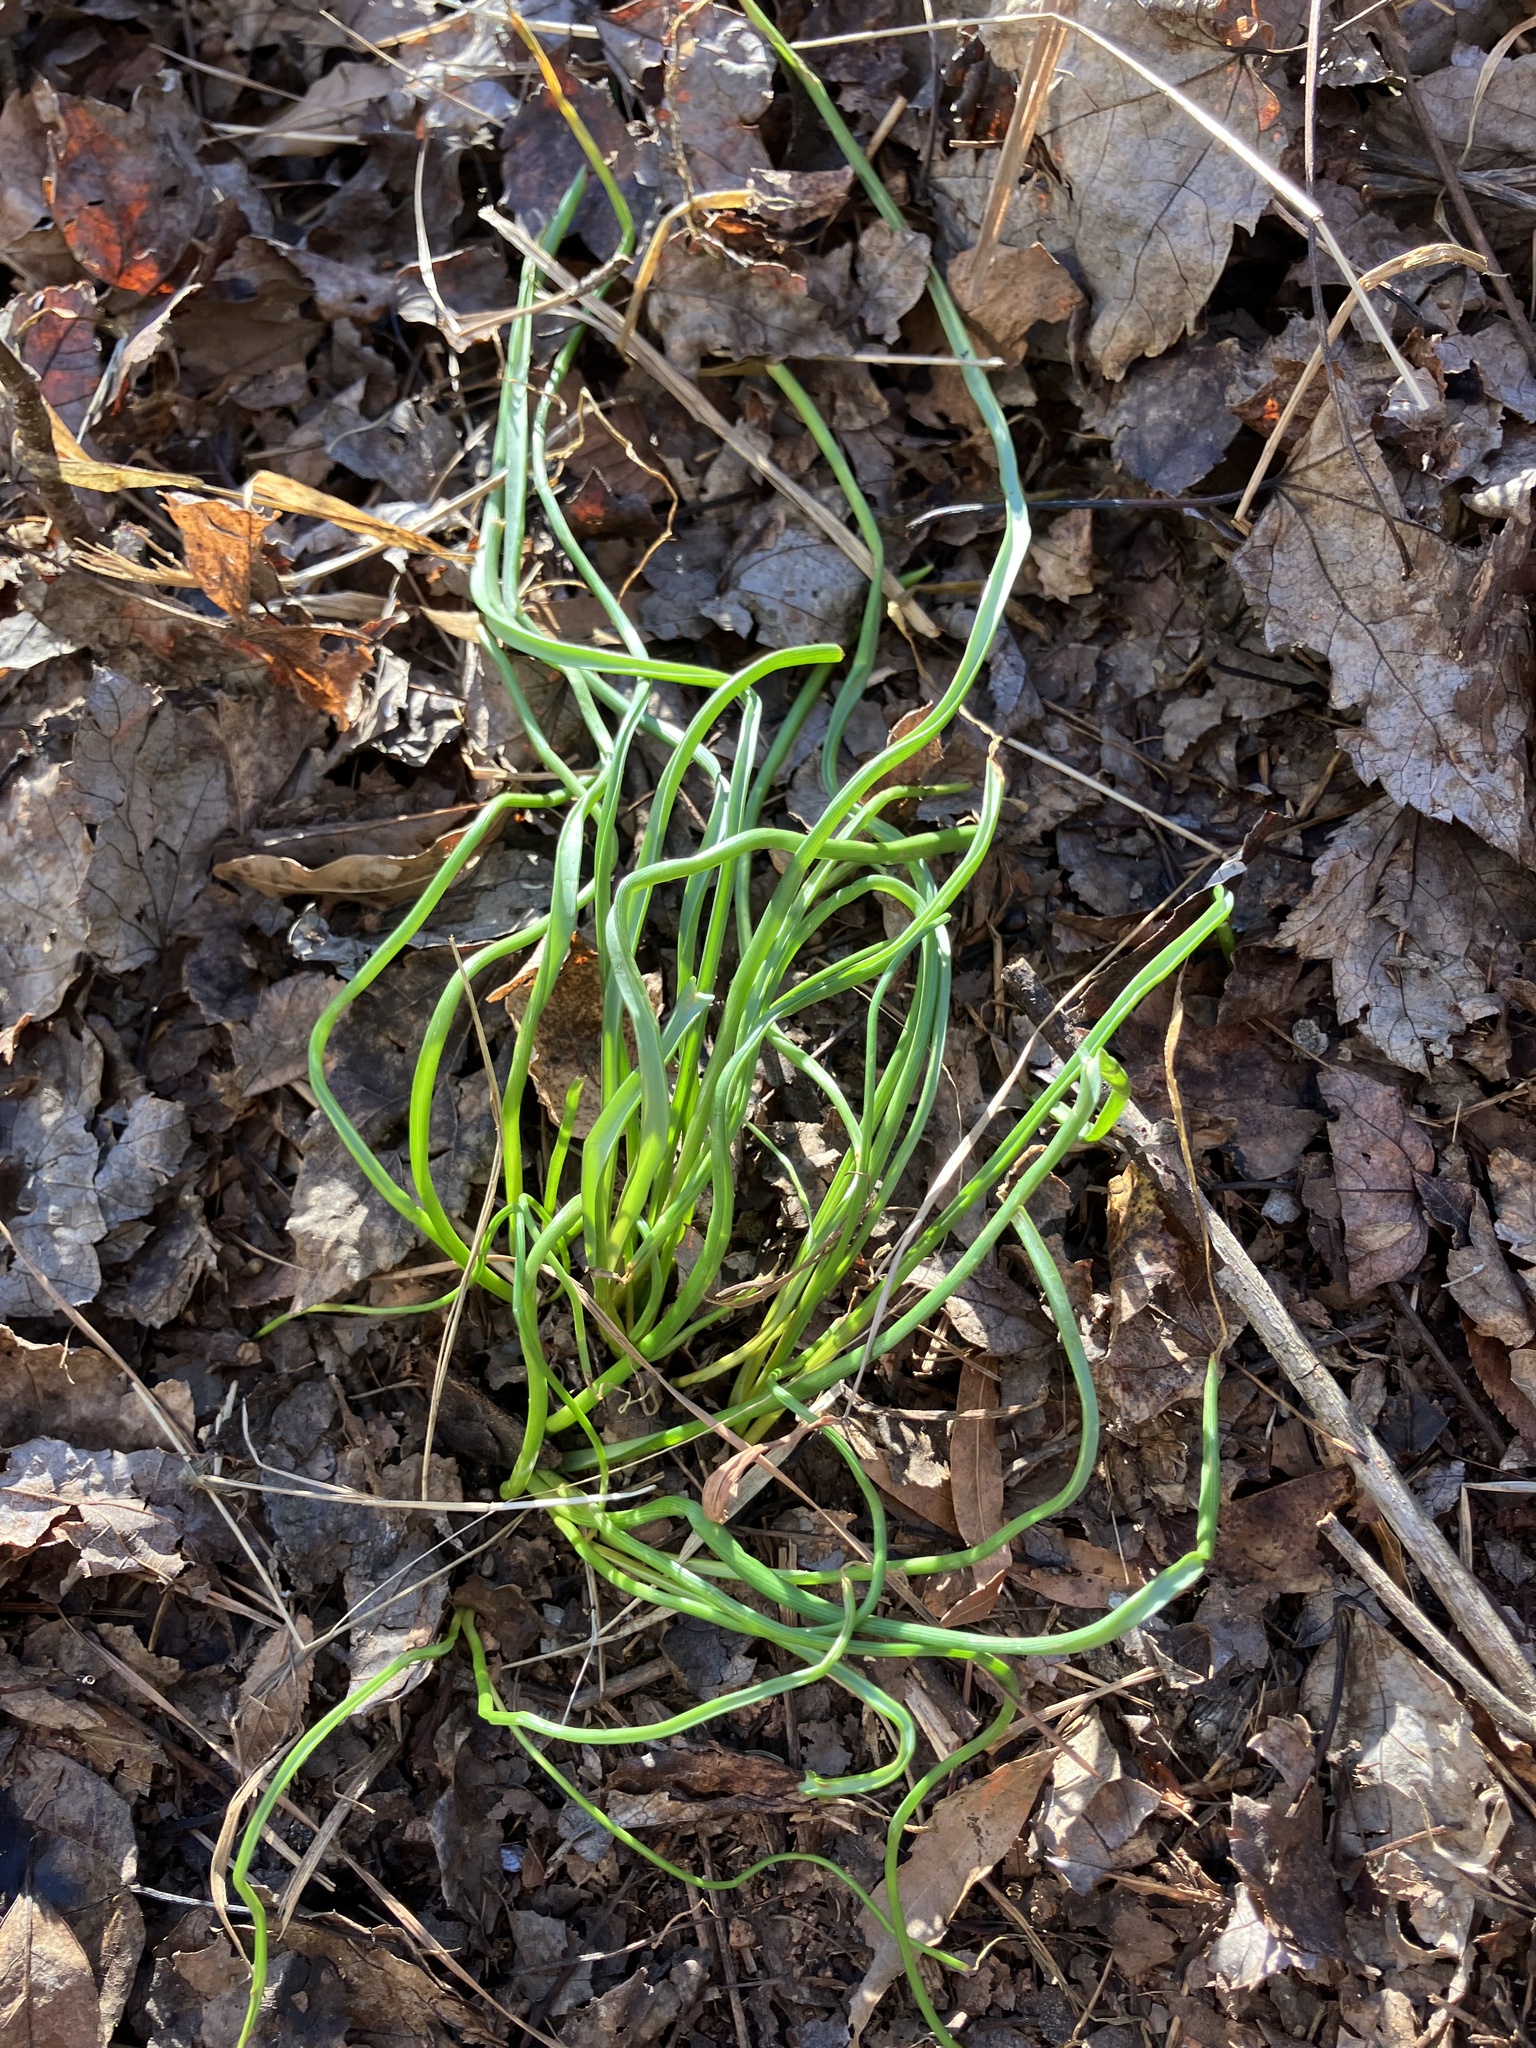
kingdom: Plantae
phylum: Tracheophyta
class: Liliopsida
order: Asparagales
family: Amaryllidaceae
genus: Allium
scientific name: Allium vineale
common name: Crow garlic
